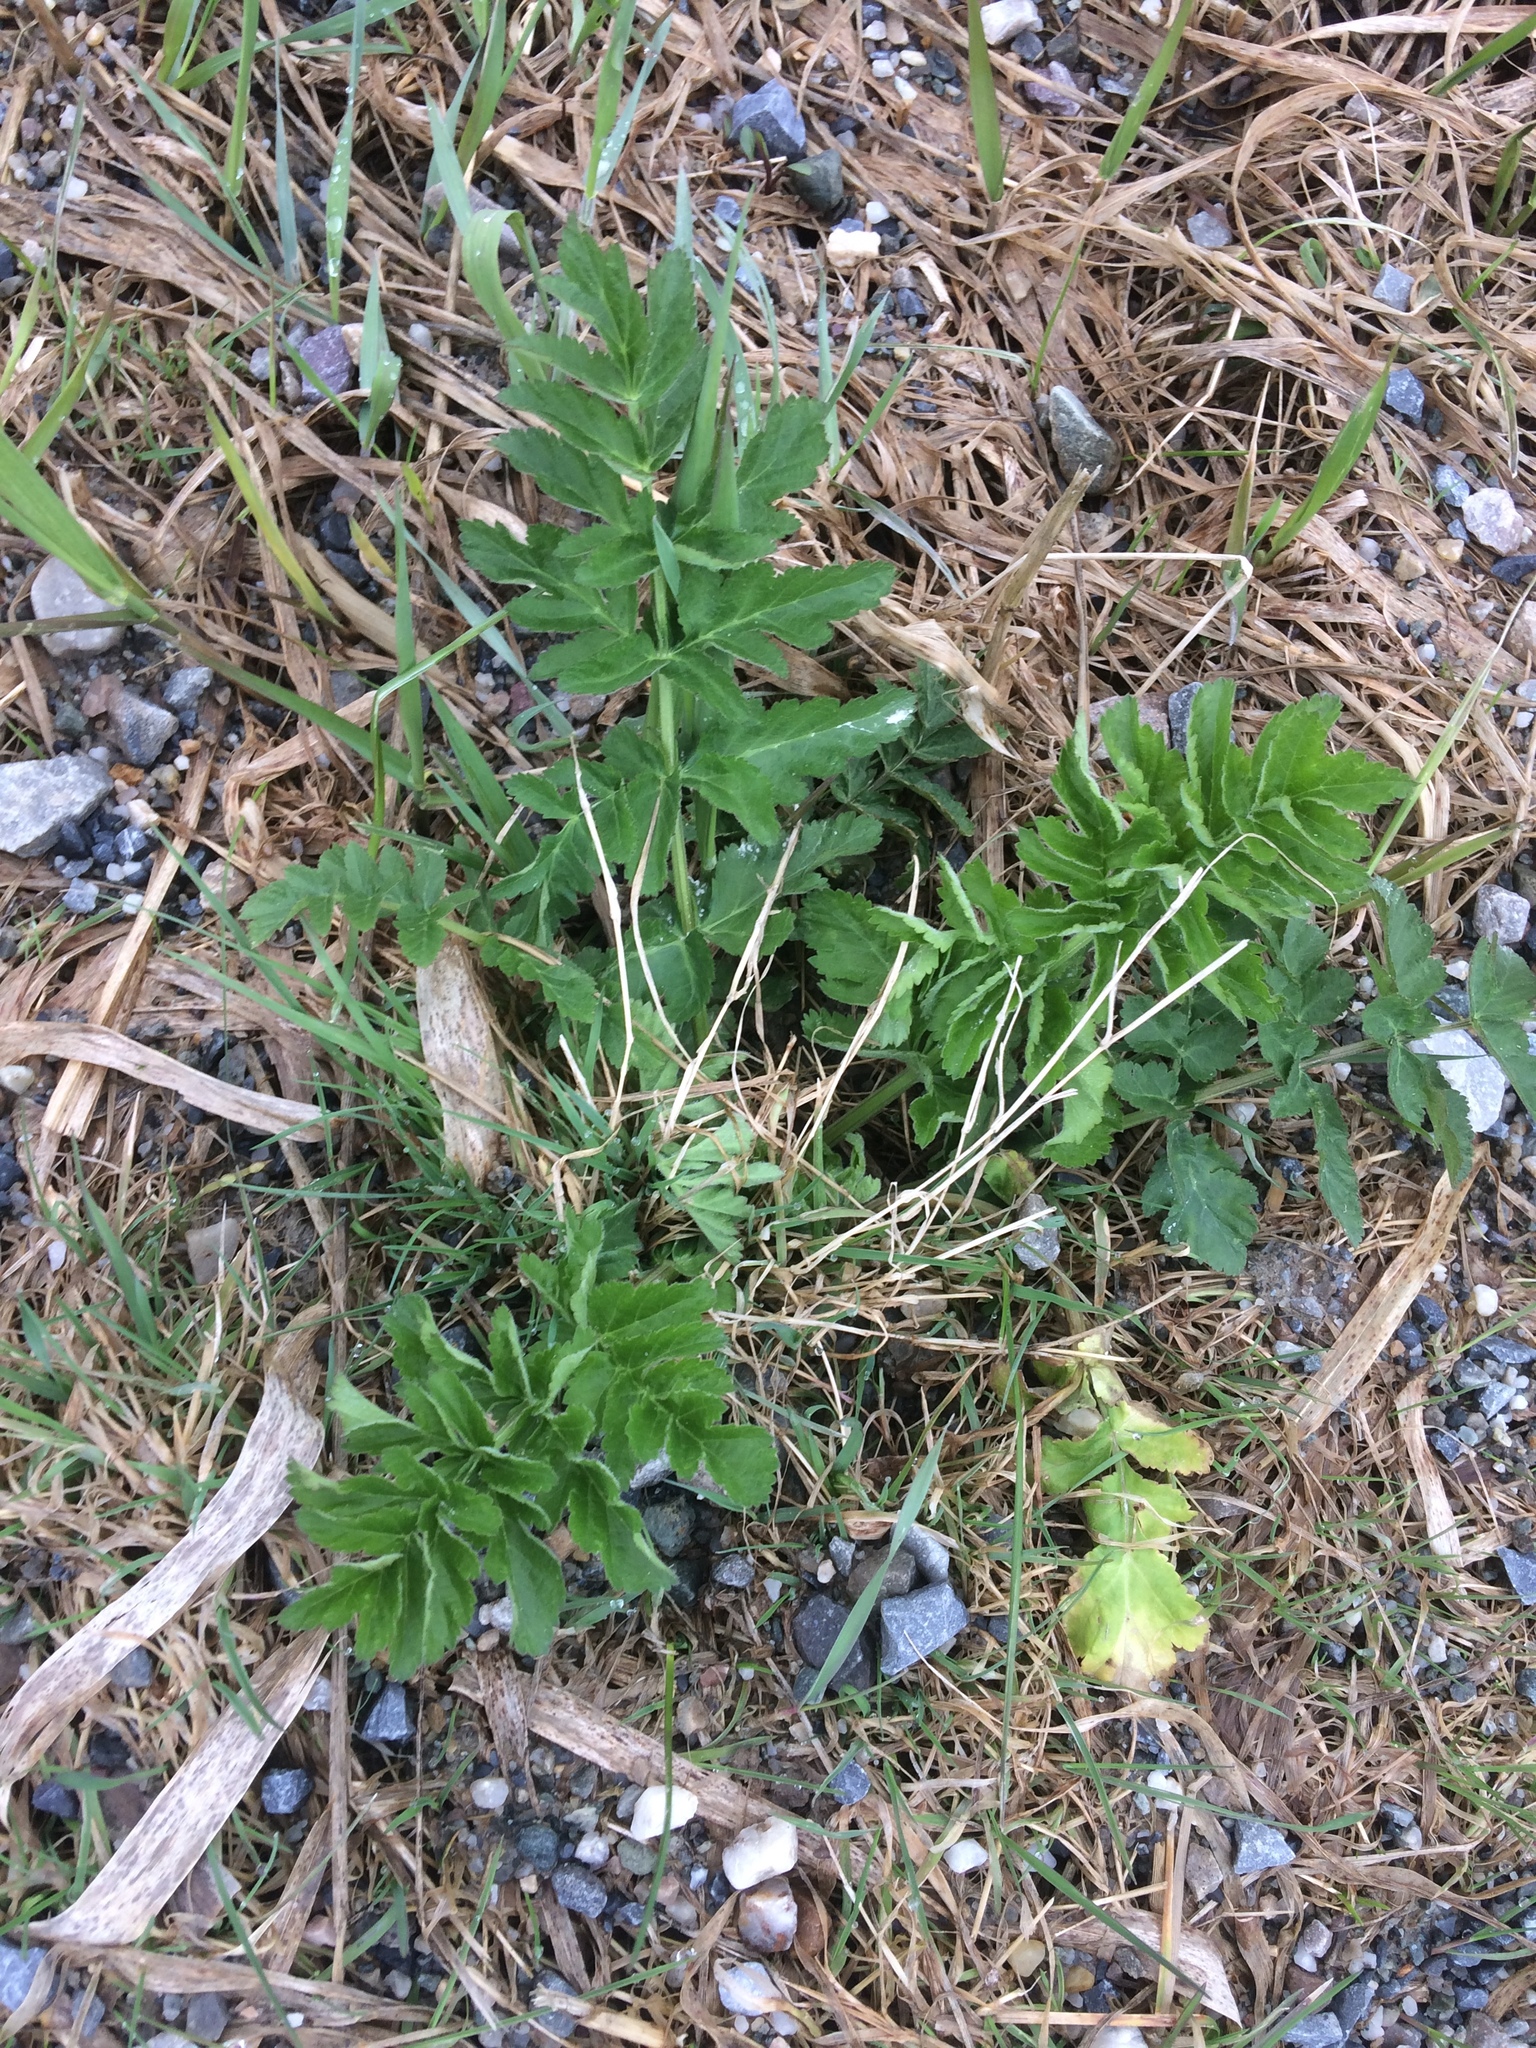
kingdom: Plantae
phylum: Tracheophyta
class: Magnoliopsida
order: Apiales
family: Apiaceae
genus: Pastinaca
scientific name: Pastinaca sativa
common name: Wild parsnip
